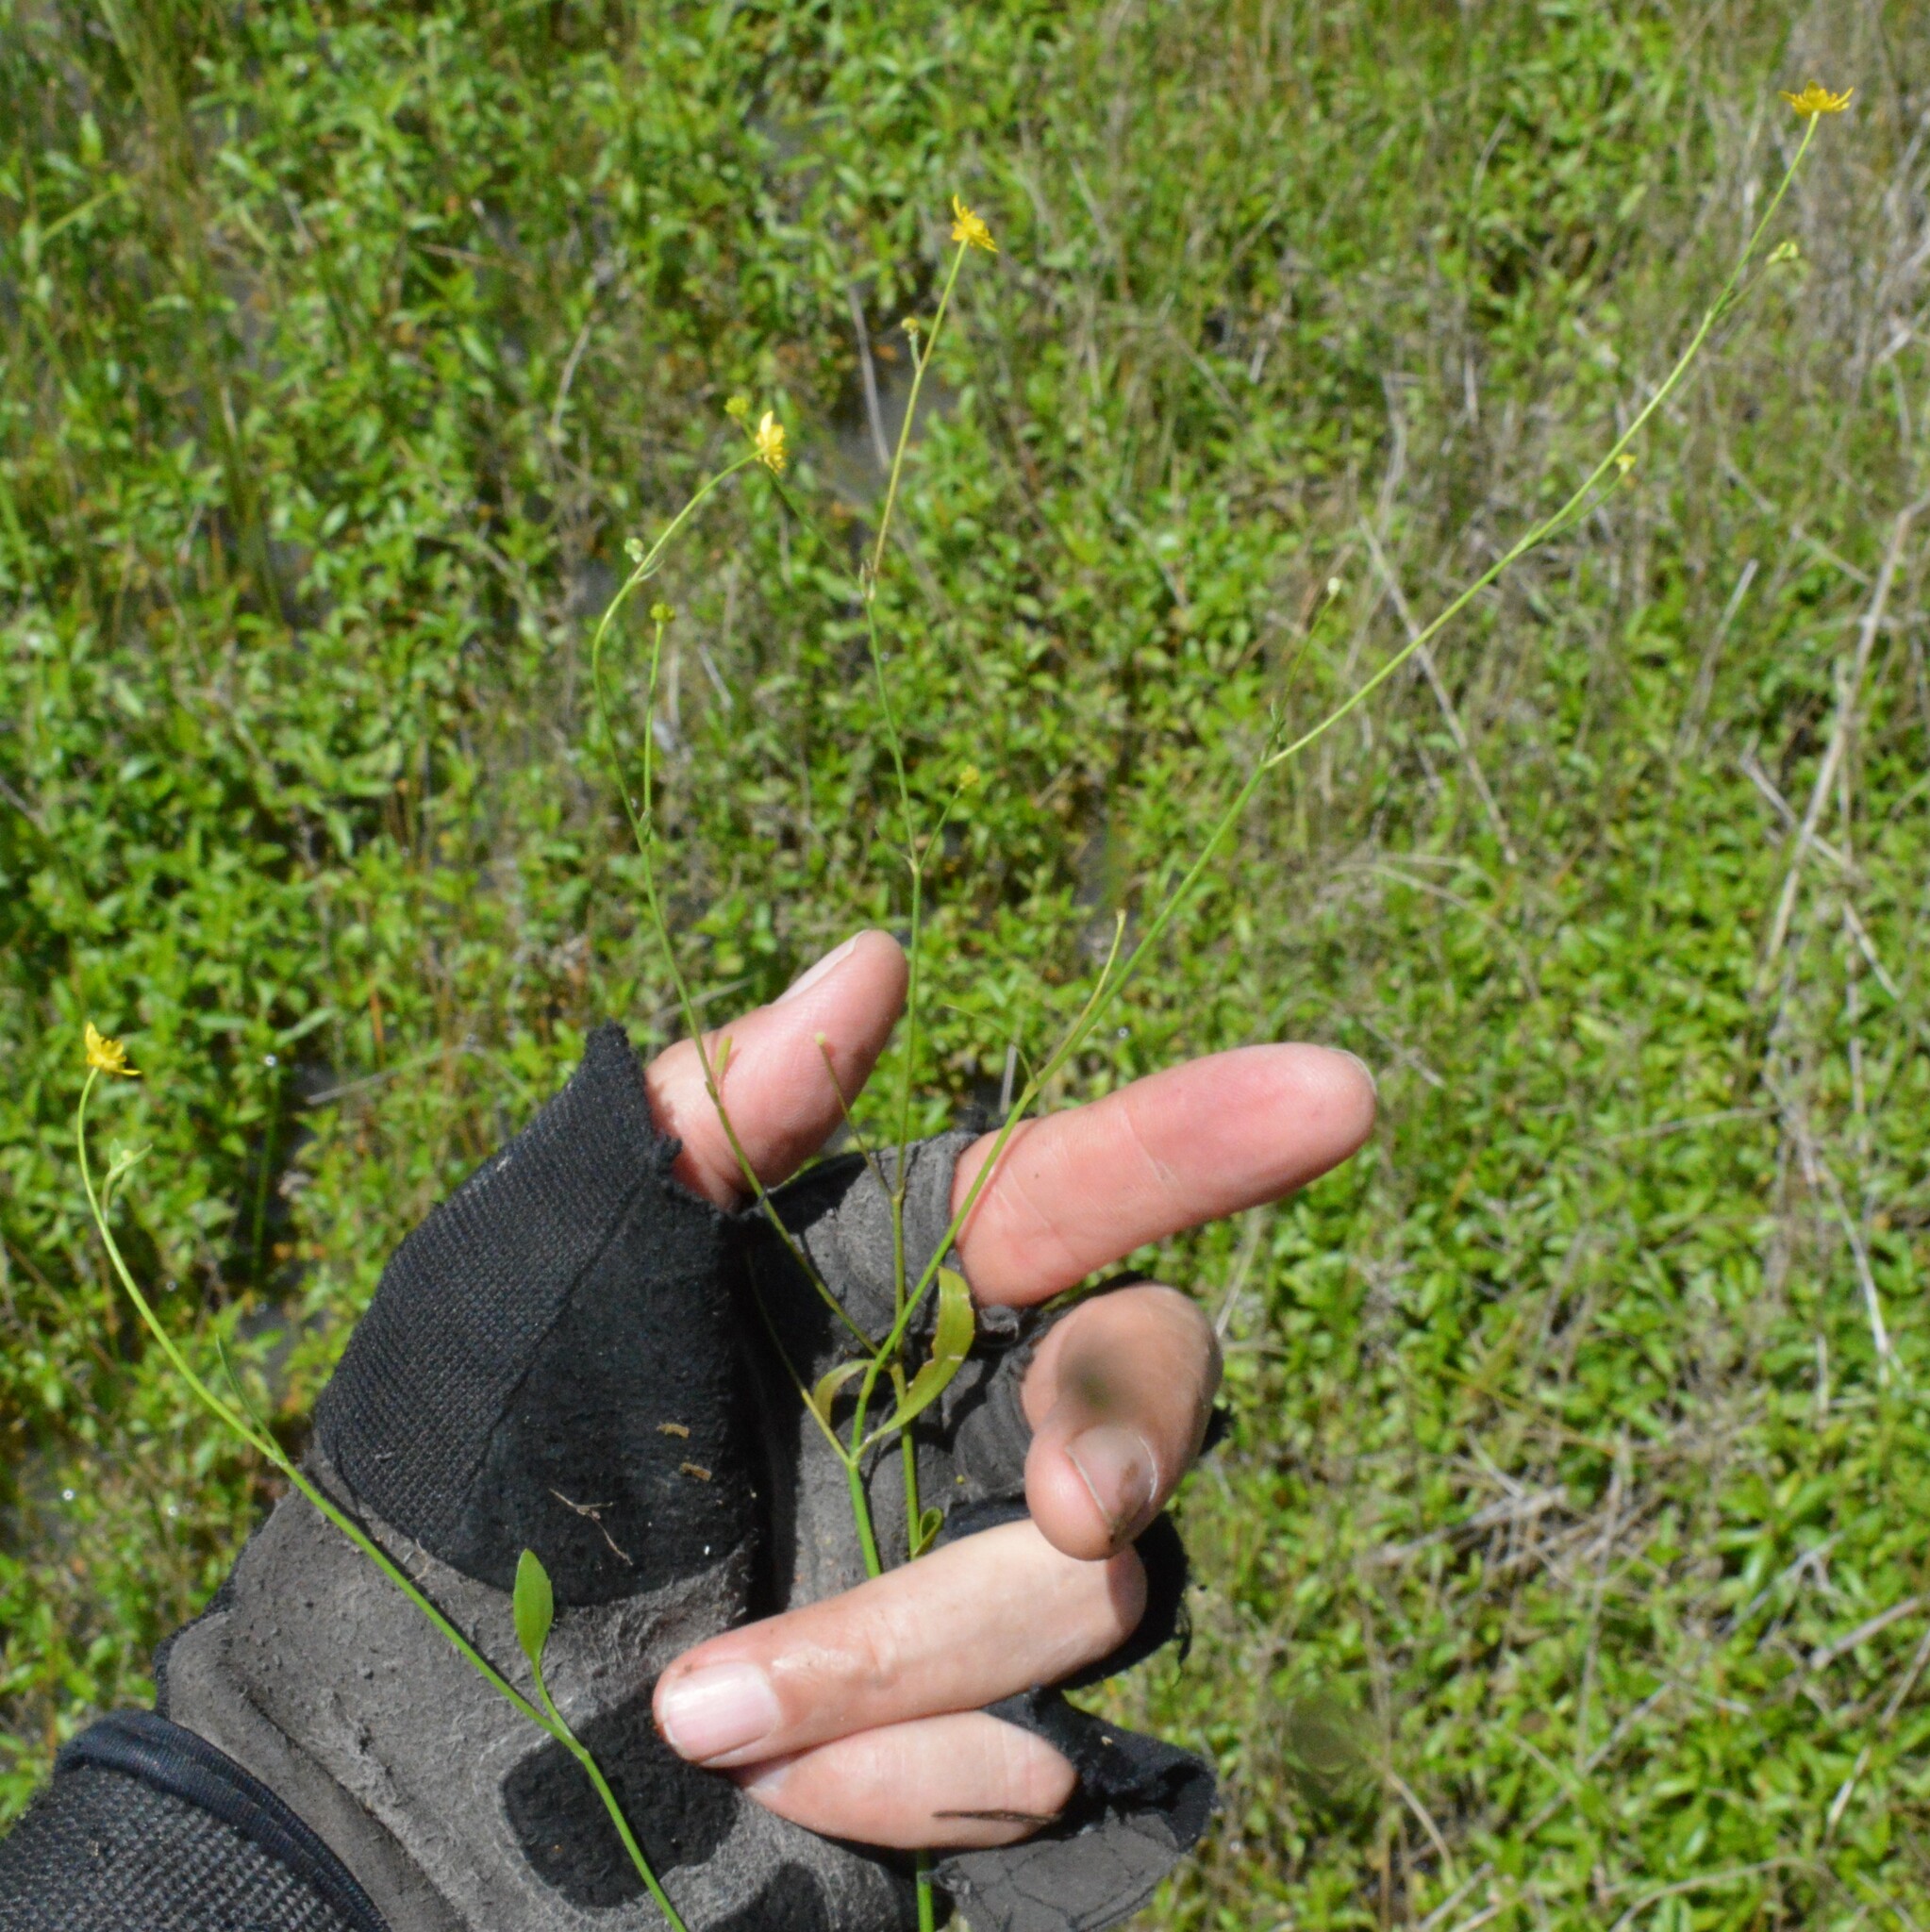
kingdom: Plantae
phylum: Tracheophyta
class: Magnoliopsida
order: Ranunculales
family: Ranunculaceae
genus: Ranunculus
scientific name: Ranunculus laxicaulis
